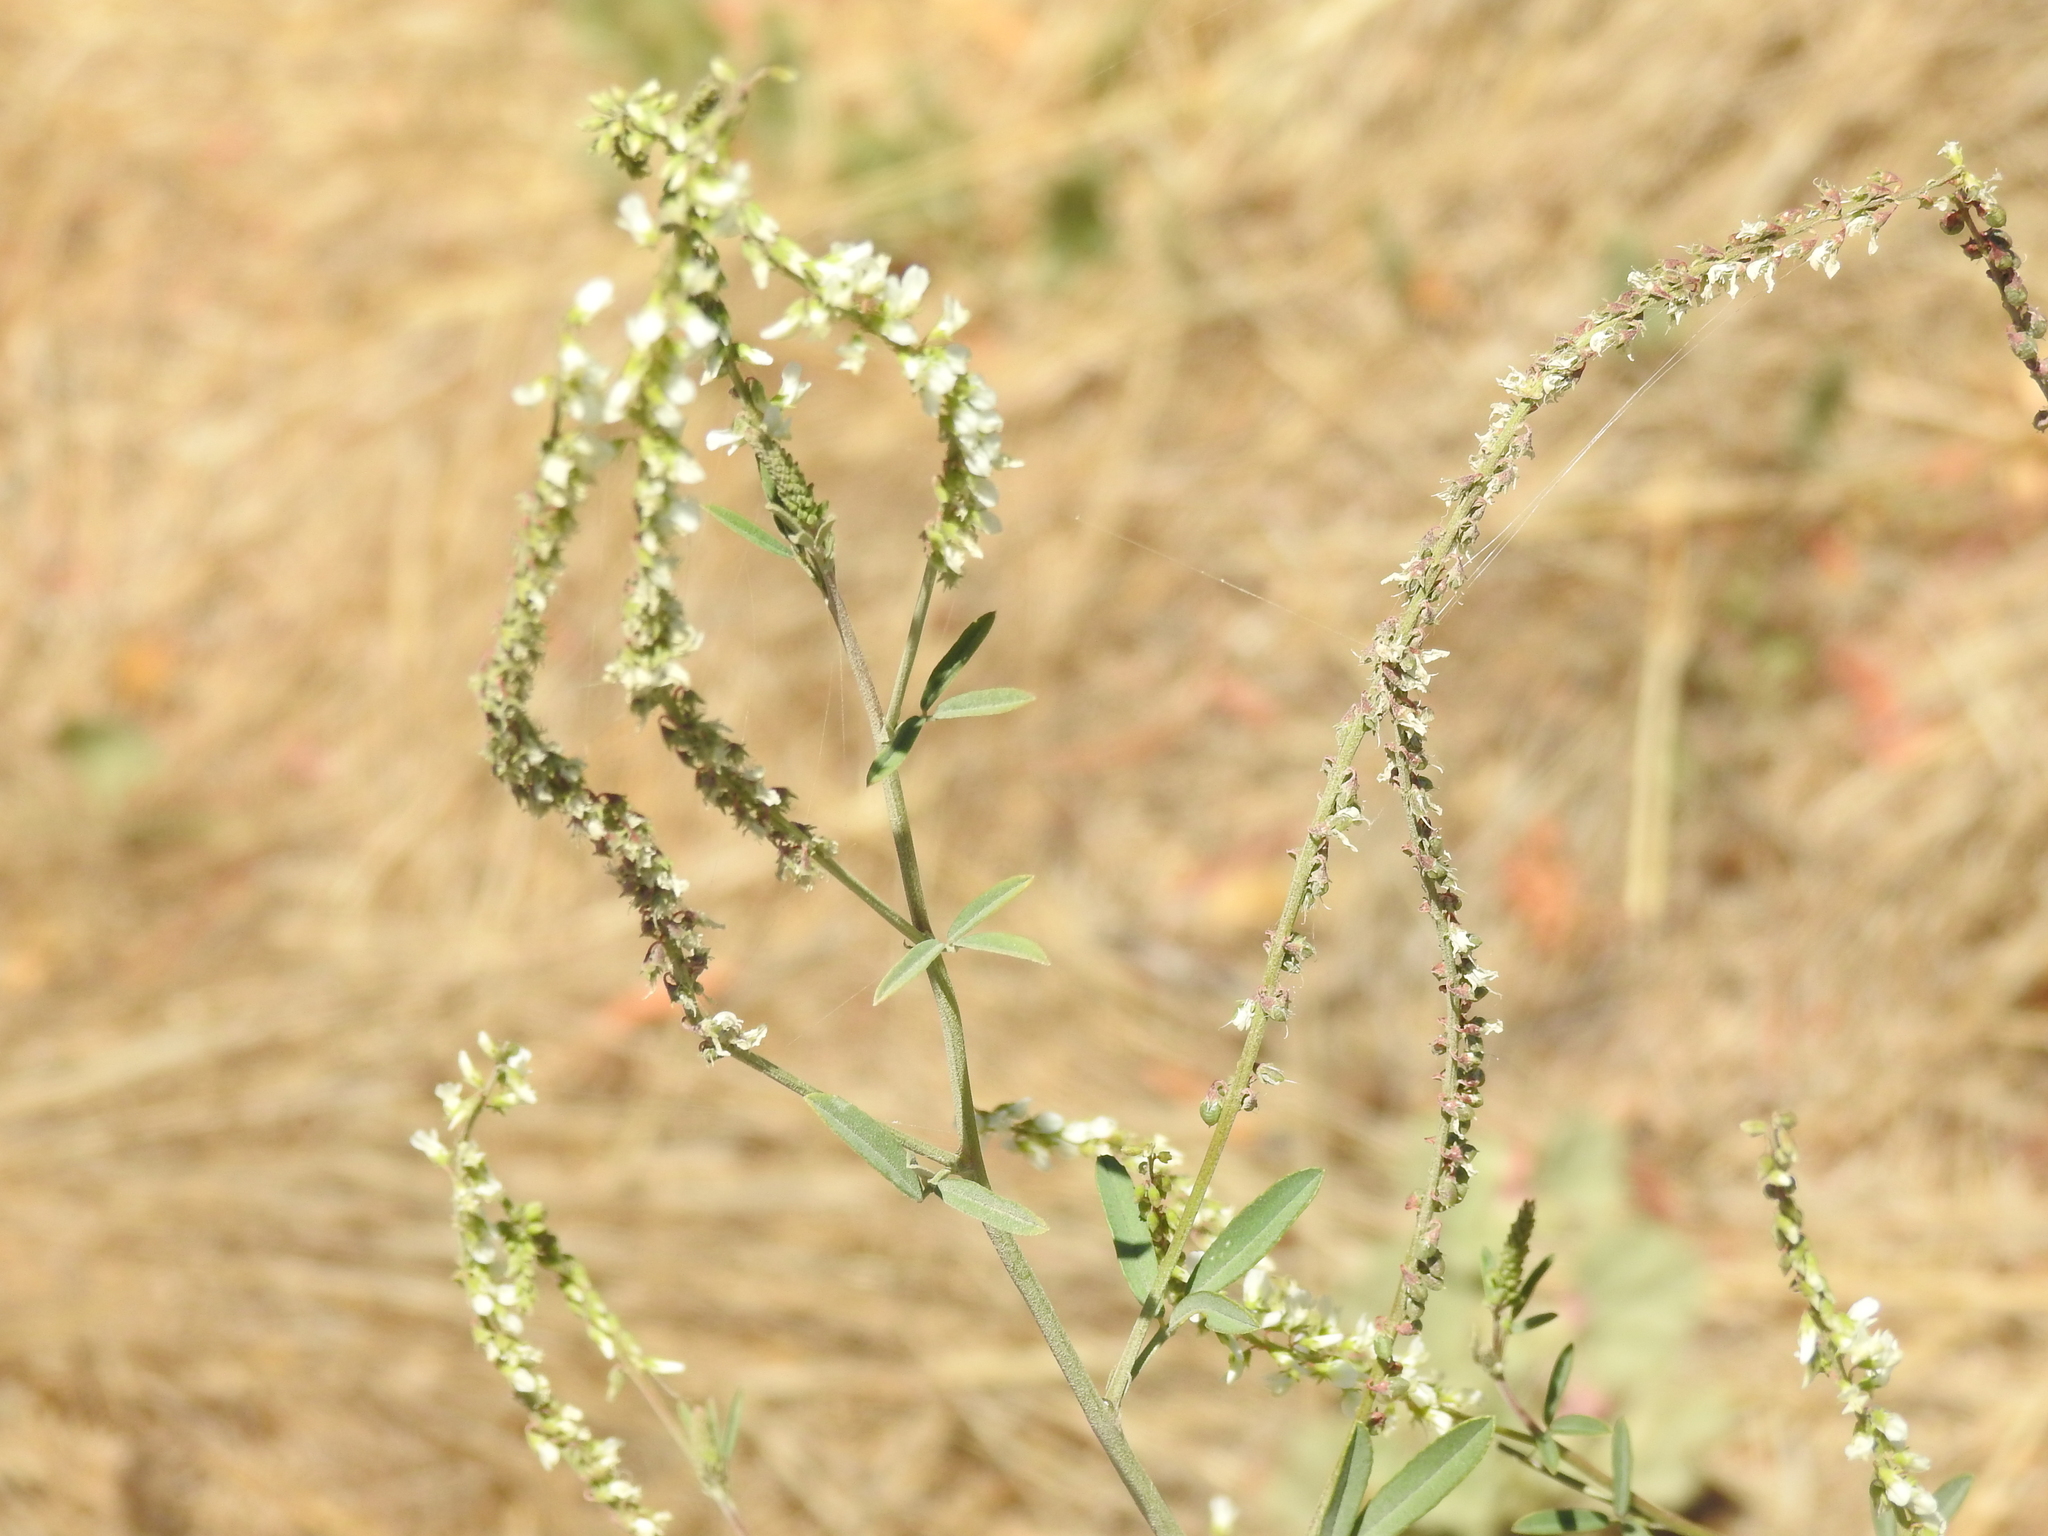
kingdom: Plantae
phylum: Tracheophyta
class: Magnoliopsida
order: Fabales
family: Fabaceae
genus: Melilotus
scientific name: Melilotus albus
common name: White melilot
